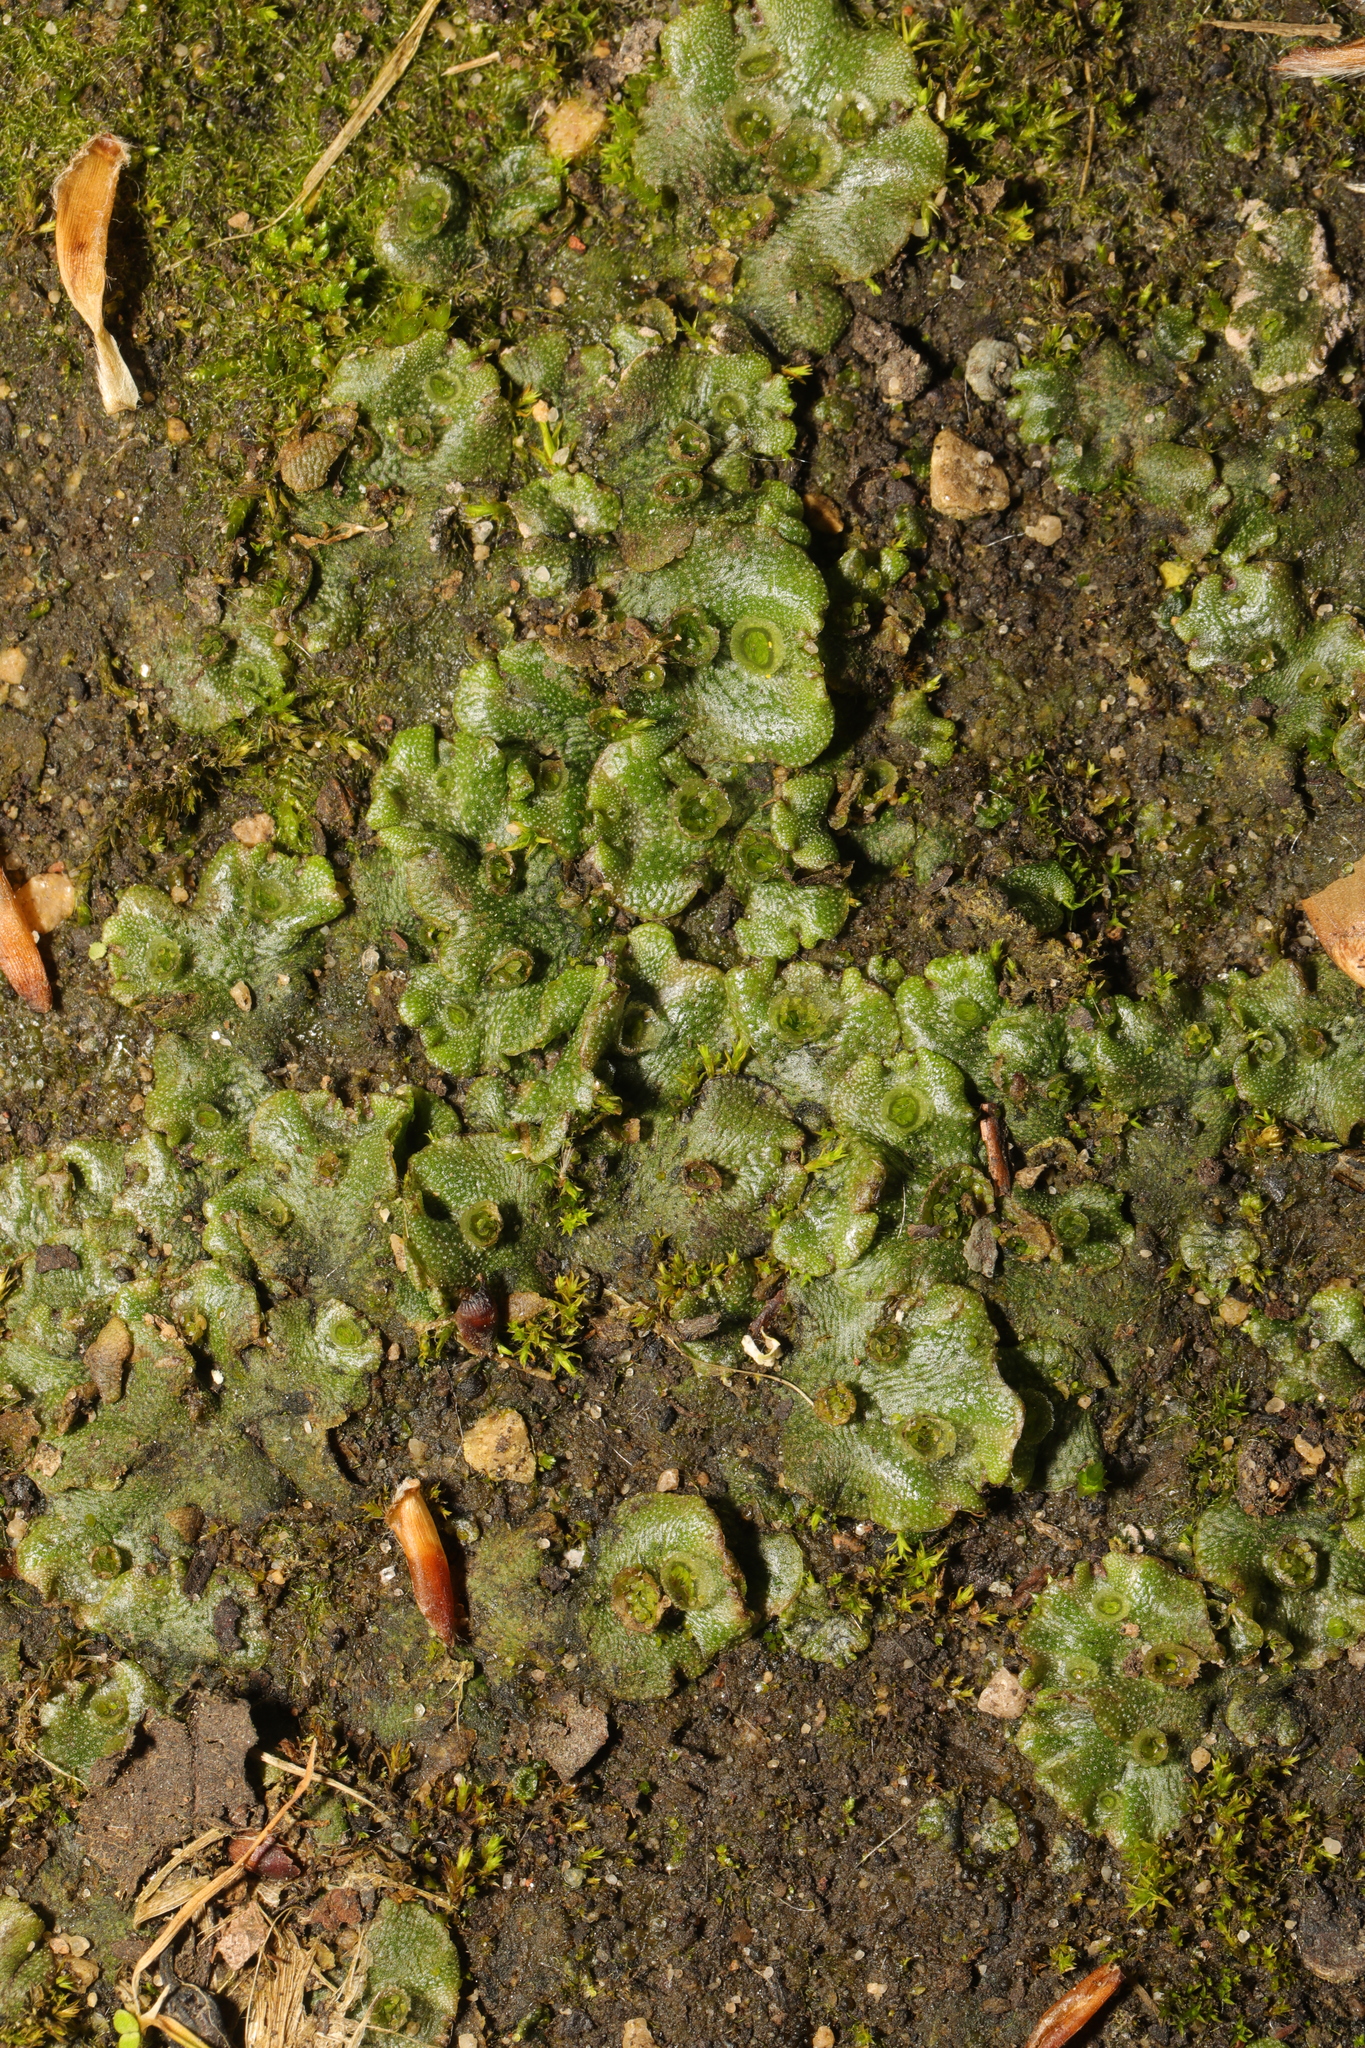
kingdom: Plantae
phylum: Marchantiophyta
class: Marchantiopsida
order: Marchantiales
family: Marchantiaceae
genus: Marchantia
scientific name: Marchantia polymorpha
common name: Common liverwort
